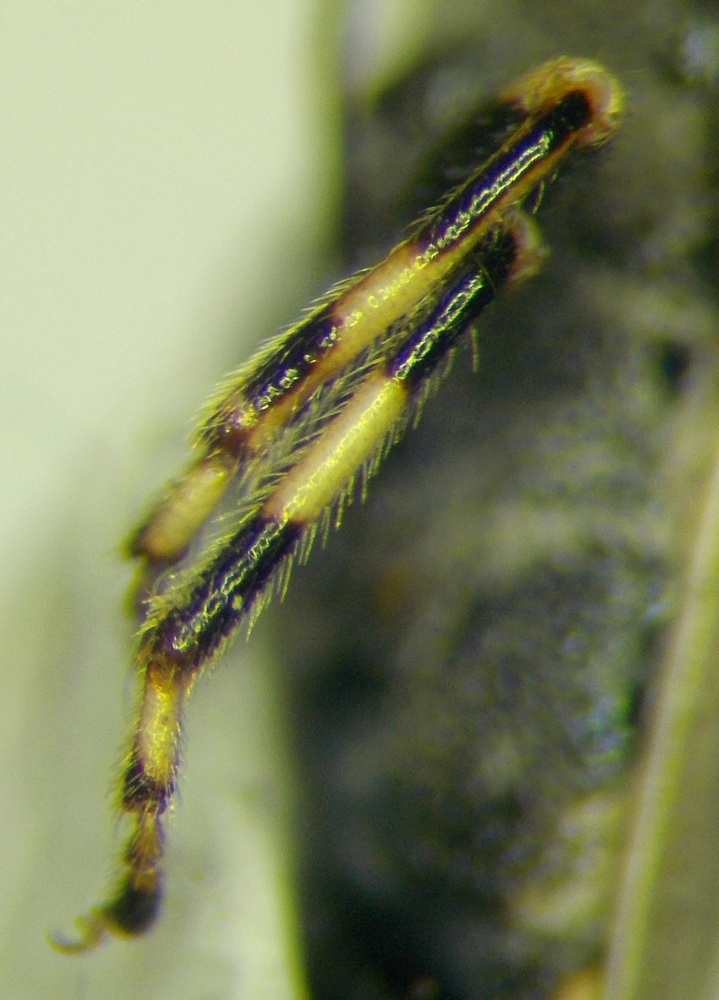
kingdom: Animalia
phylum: Arthropoda
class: Insecta
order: Hemiptera
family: Heterogastridae
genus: Heterogaster
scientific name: Heterogaster cathariae
